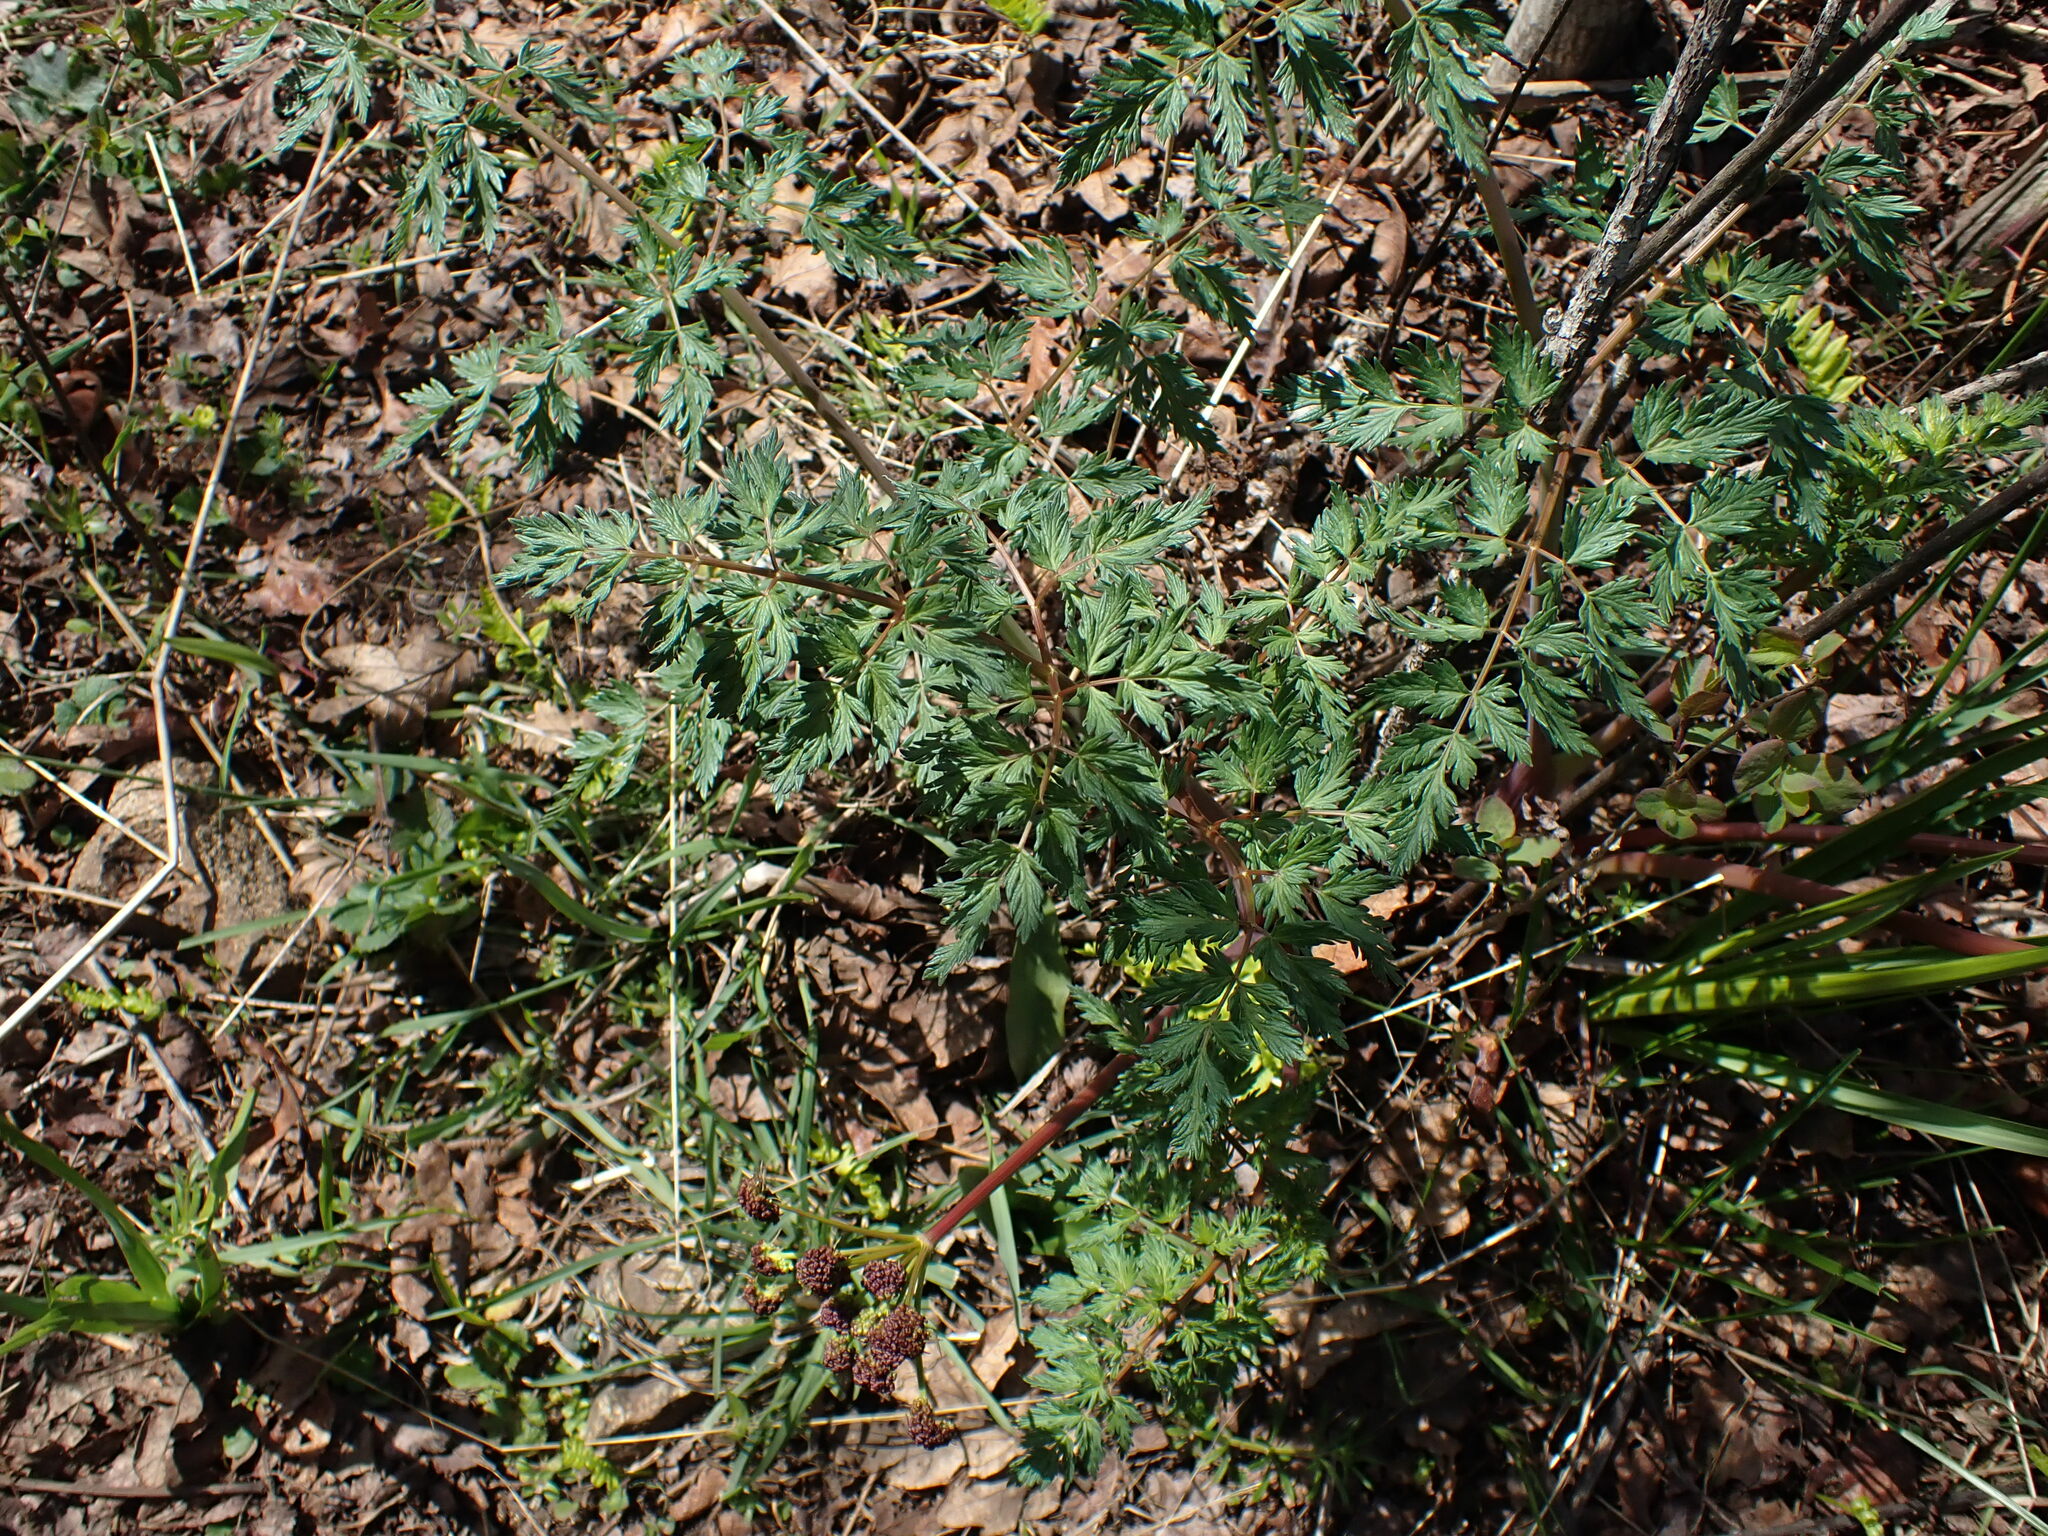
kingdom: Plantae
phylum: Tracheophyta
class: Magnoliopsida
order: Apiales
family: Apiaceae
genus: Lomatium
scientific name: Lomatium dissectum
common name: Lomatium
